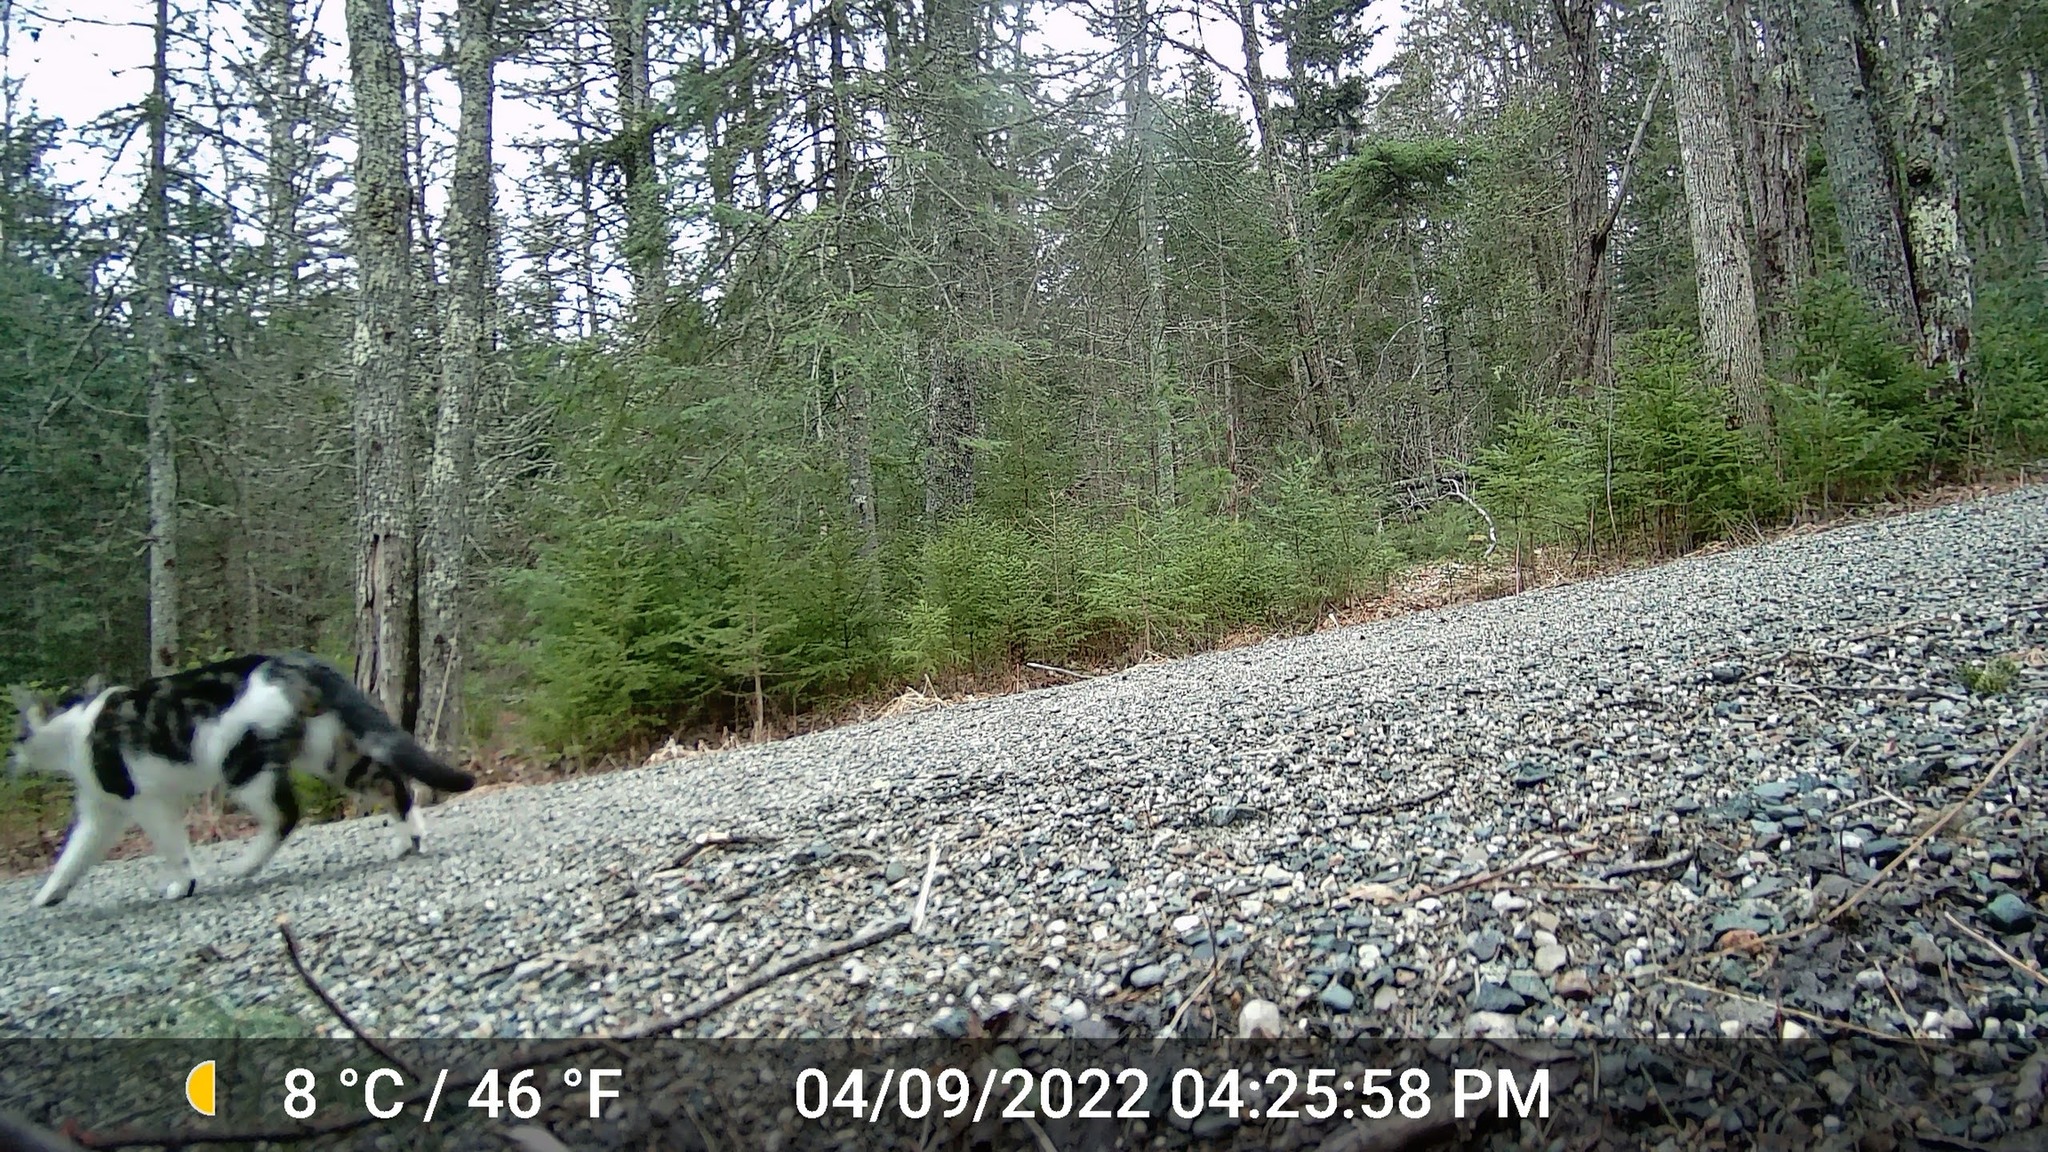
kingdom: Animalia
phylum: Chordata
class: Mammalia
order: Carnivora
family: Felidae
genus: Felis
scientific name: Felis catus
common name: Domestic cat
